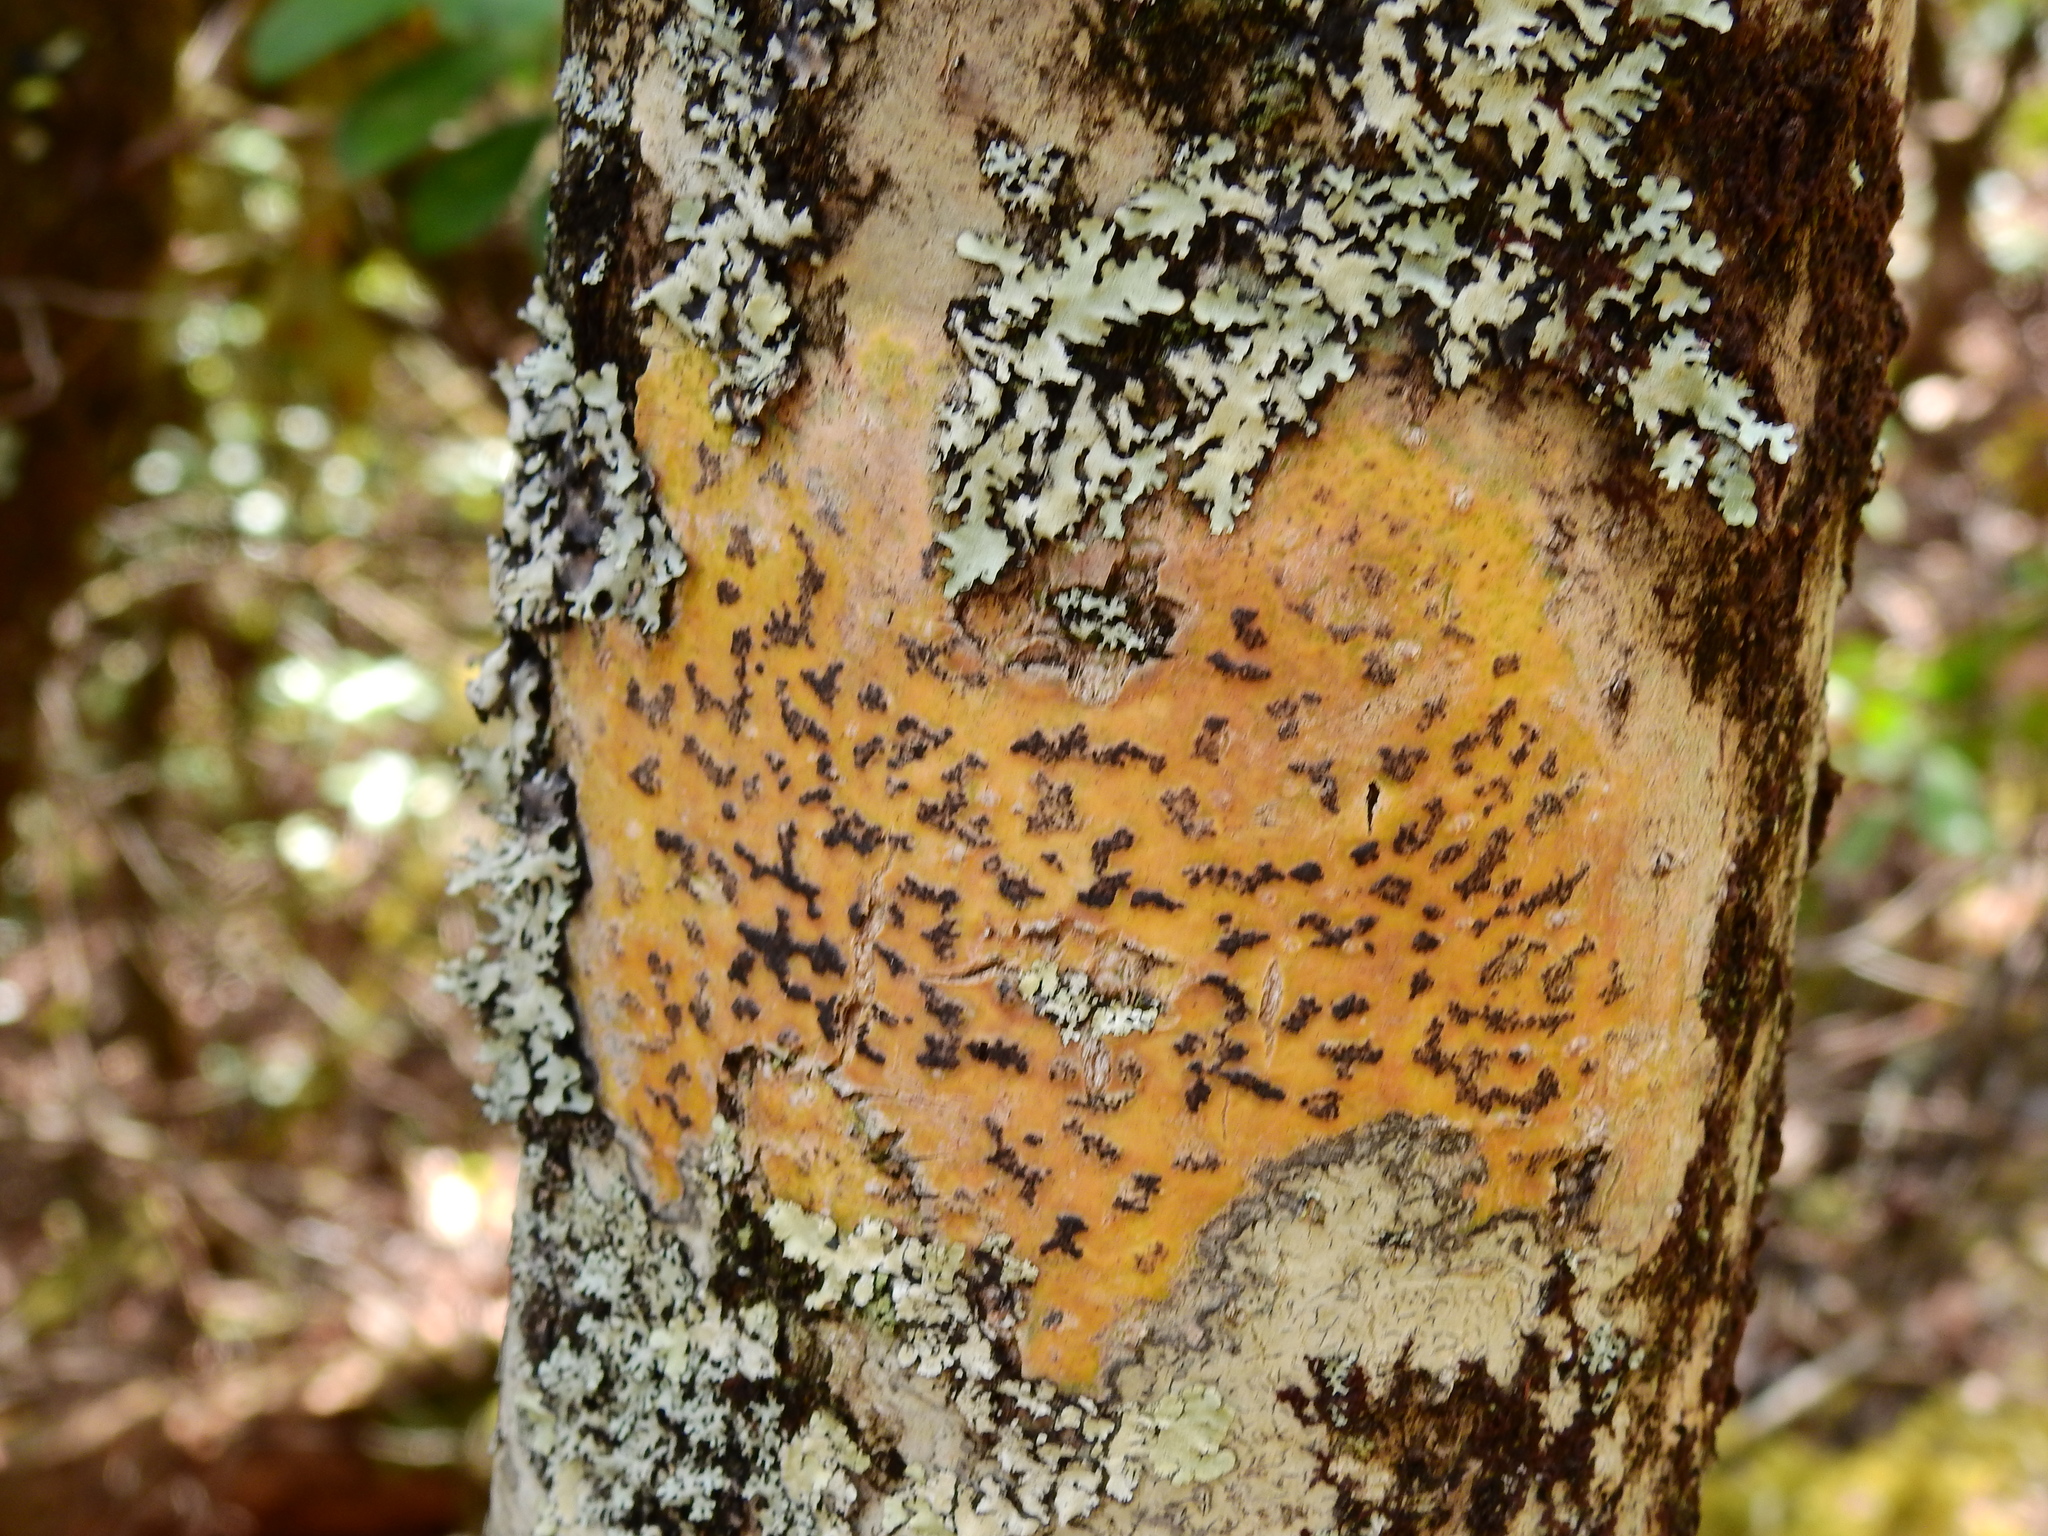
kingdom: Fungi
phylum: Ascomycota
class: Dothideomycetes
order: Trypetheliales
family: Trypetheliaceae
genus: Viridothelium
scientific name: Viridothelium virens
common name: Speckled blister lichen
